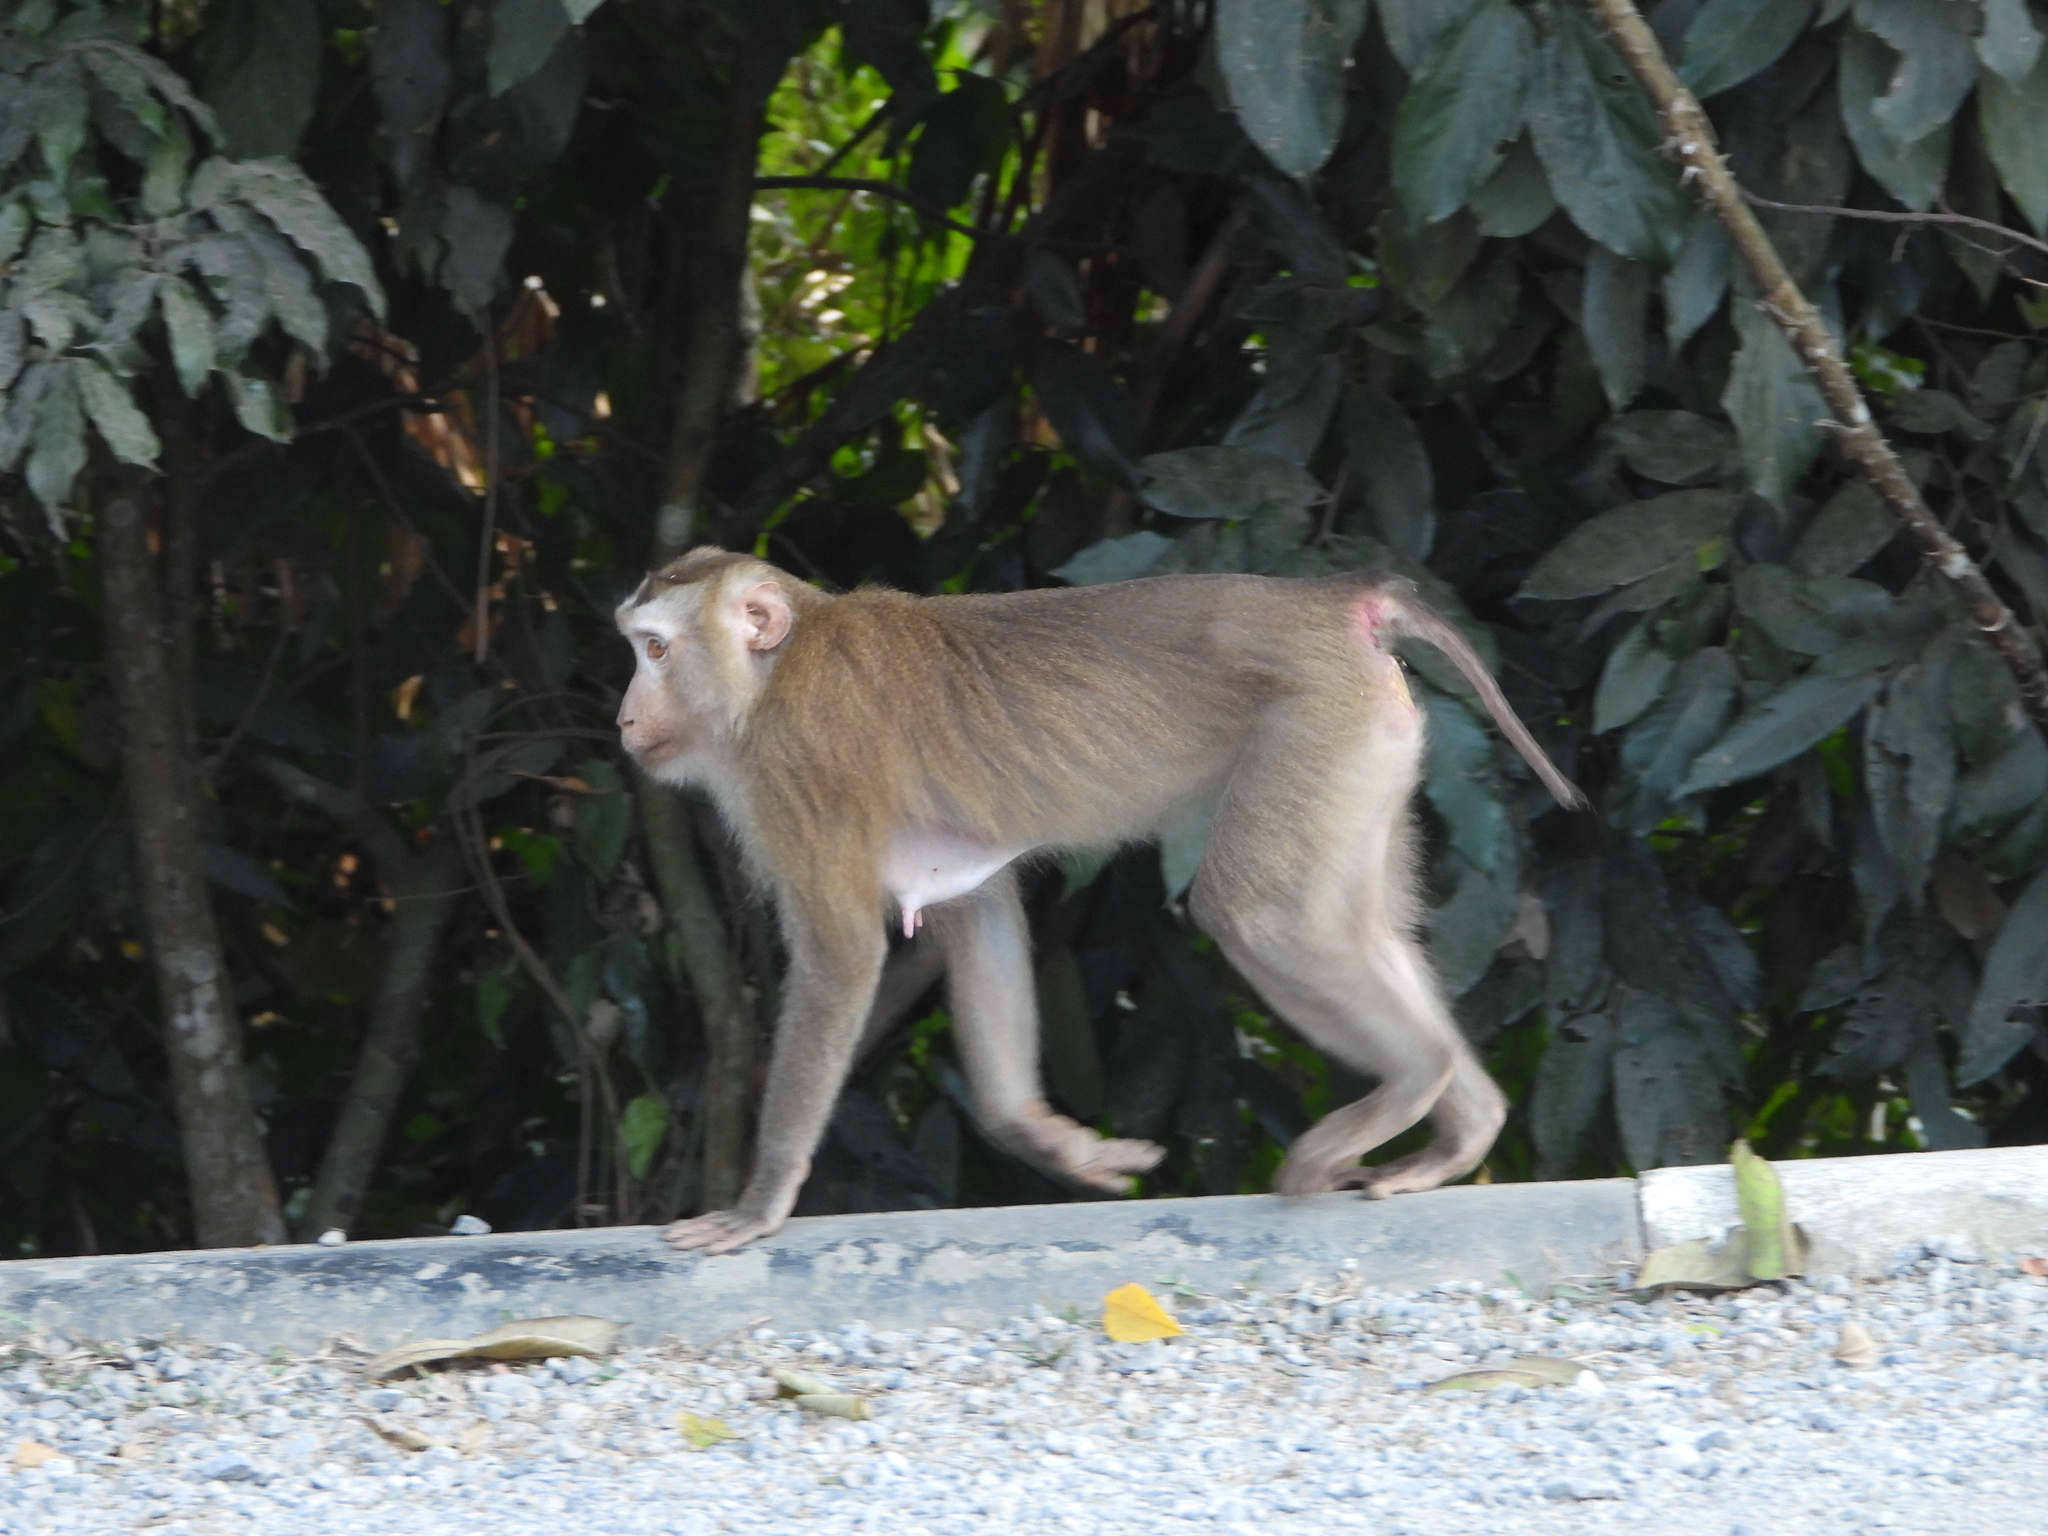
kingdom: Animalia
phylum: Chordata
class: Mammalia
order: Primates
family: Cercopithecidae
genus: Macaca
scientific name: Macaca leonina
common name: Northern pig-tailed macaque
